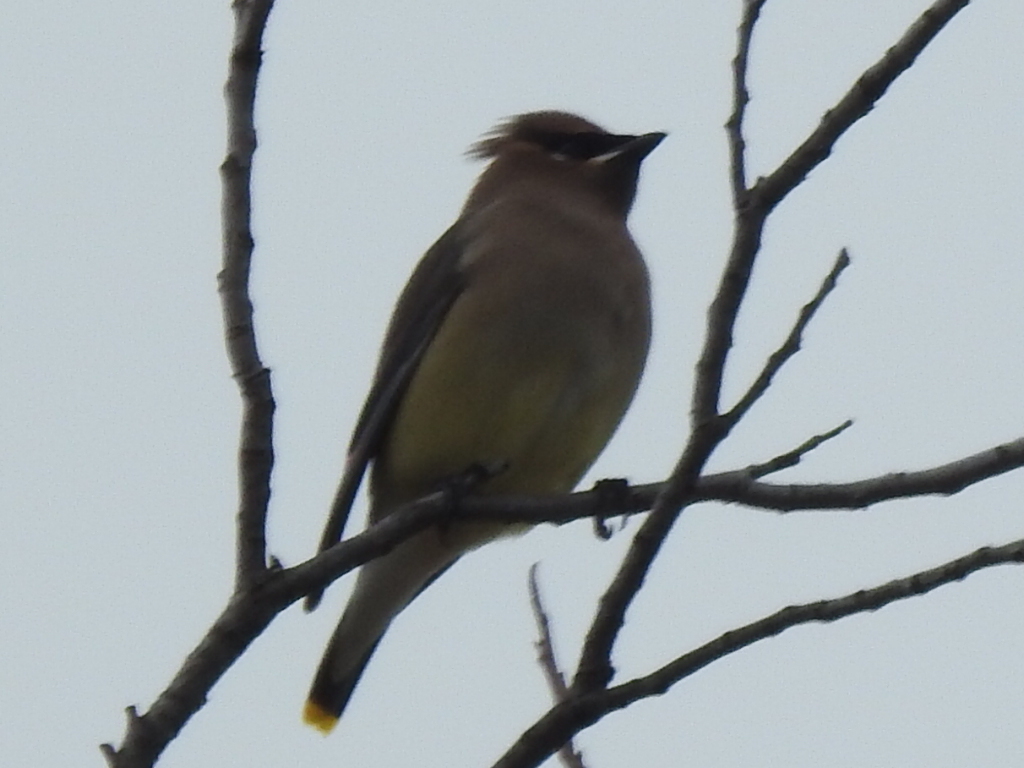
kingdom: Animalia
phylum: Chordata
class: Aves
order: Passeriformes
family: Bombycillidae
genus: Bombycilla
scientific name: Bombycilla cedrorum
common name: Cedar waxwing
